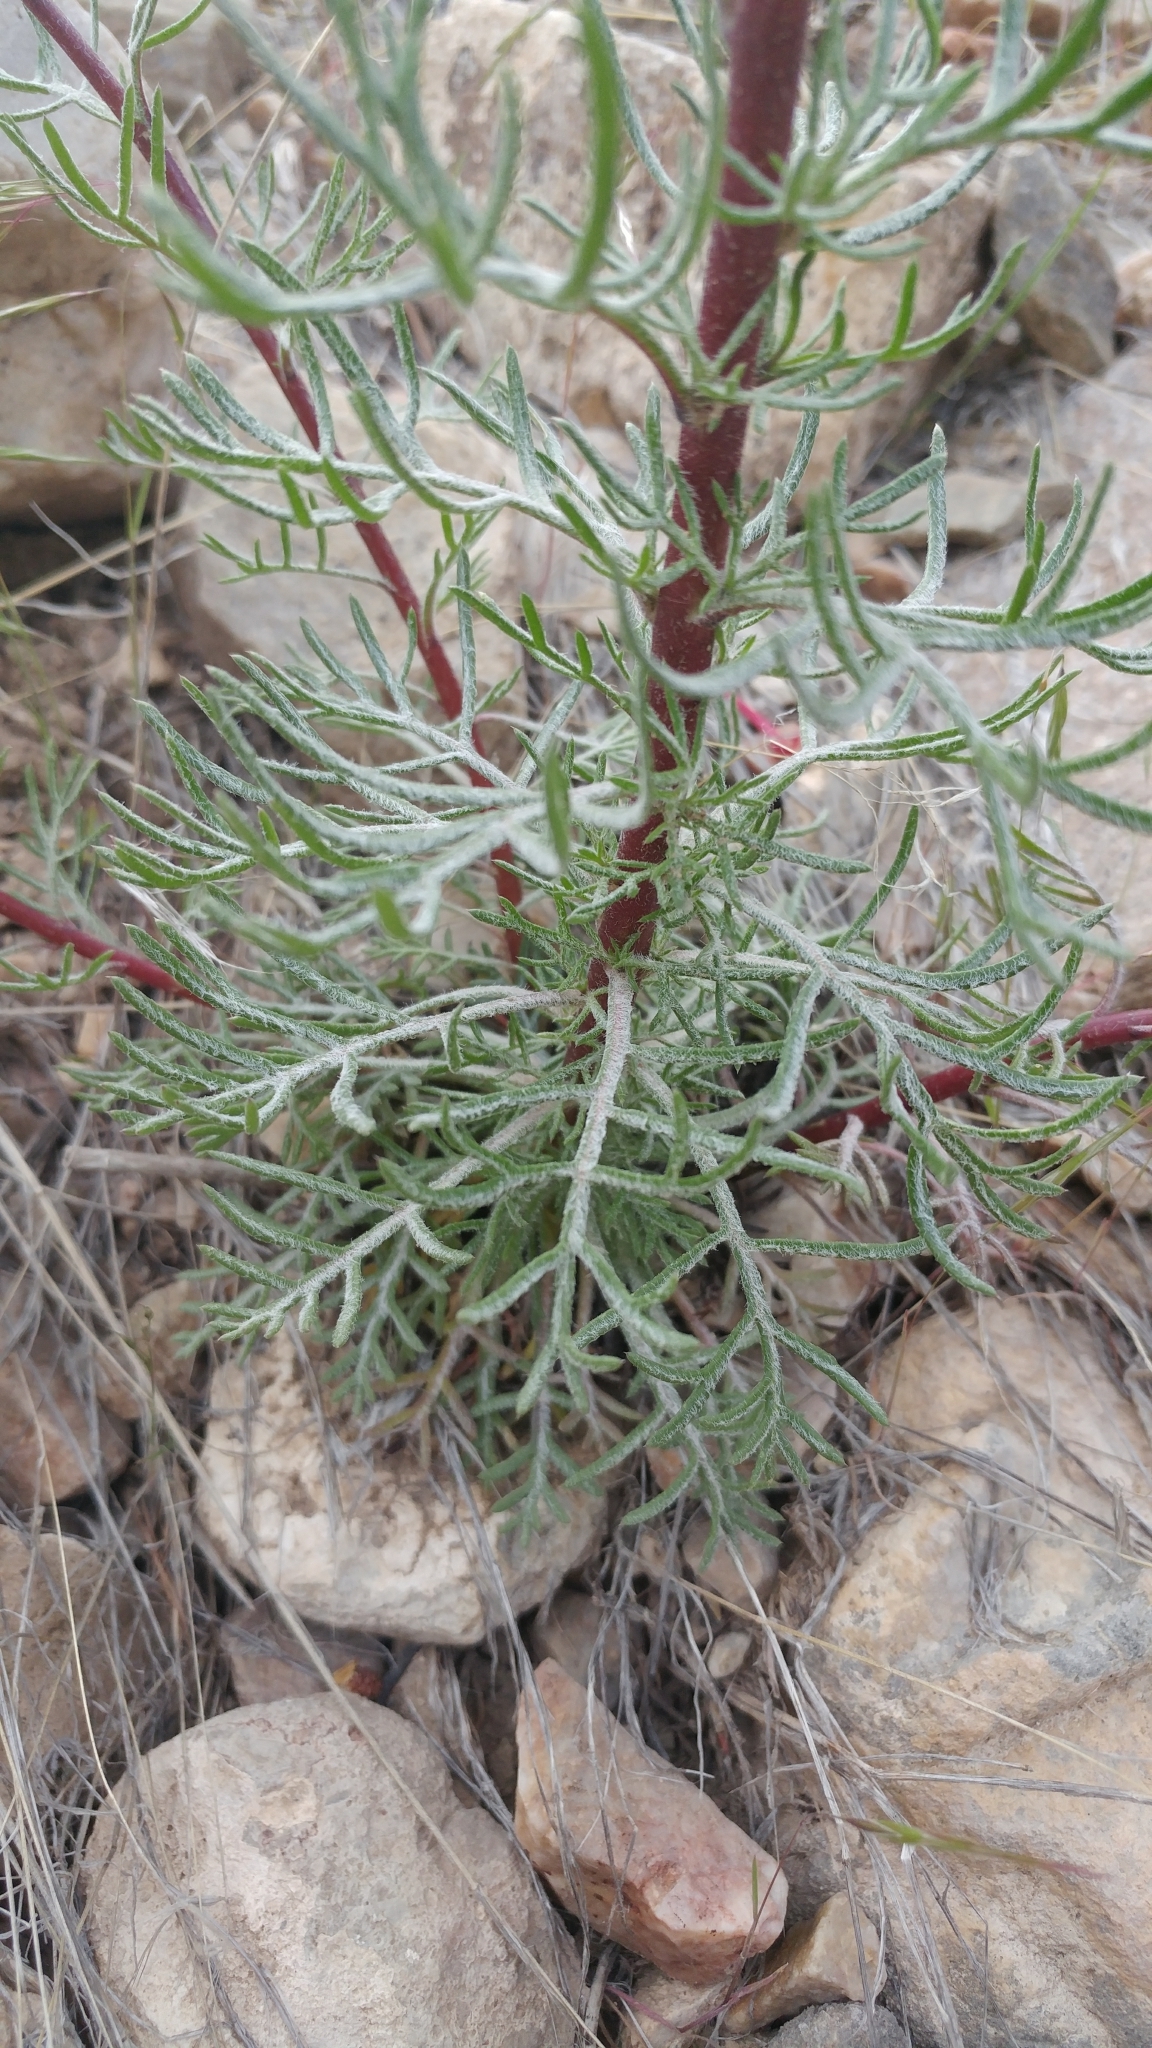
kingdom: Plantae
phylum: Tracheophyta
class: Magnoliopsida
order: Ericales
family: Polemoniaceae
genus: Ipomopsis
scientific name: Ipomopsis aggregata
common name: Scarlet gilia
